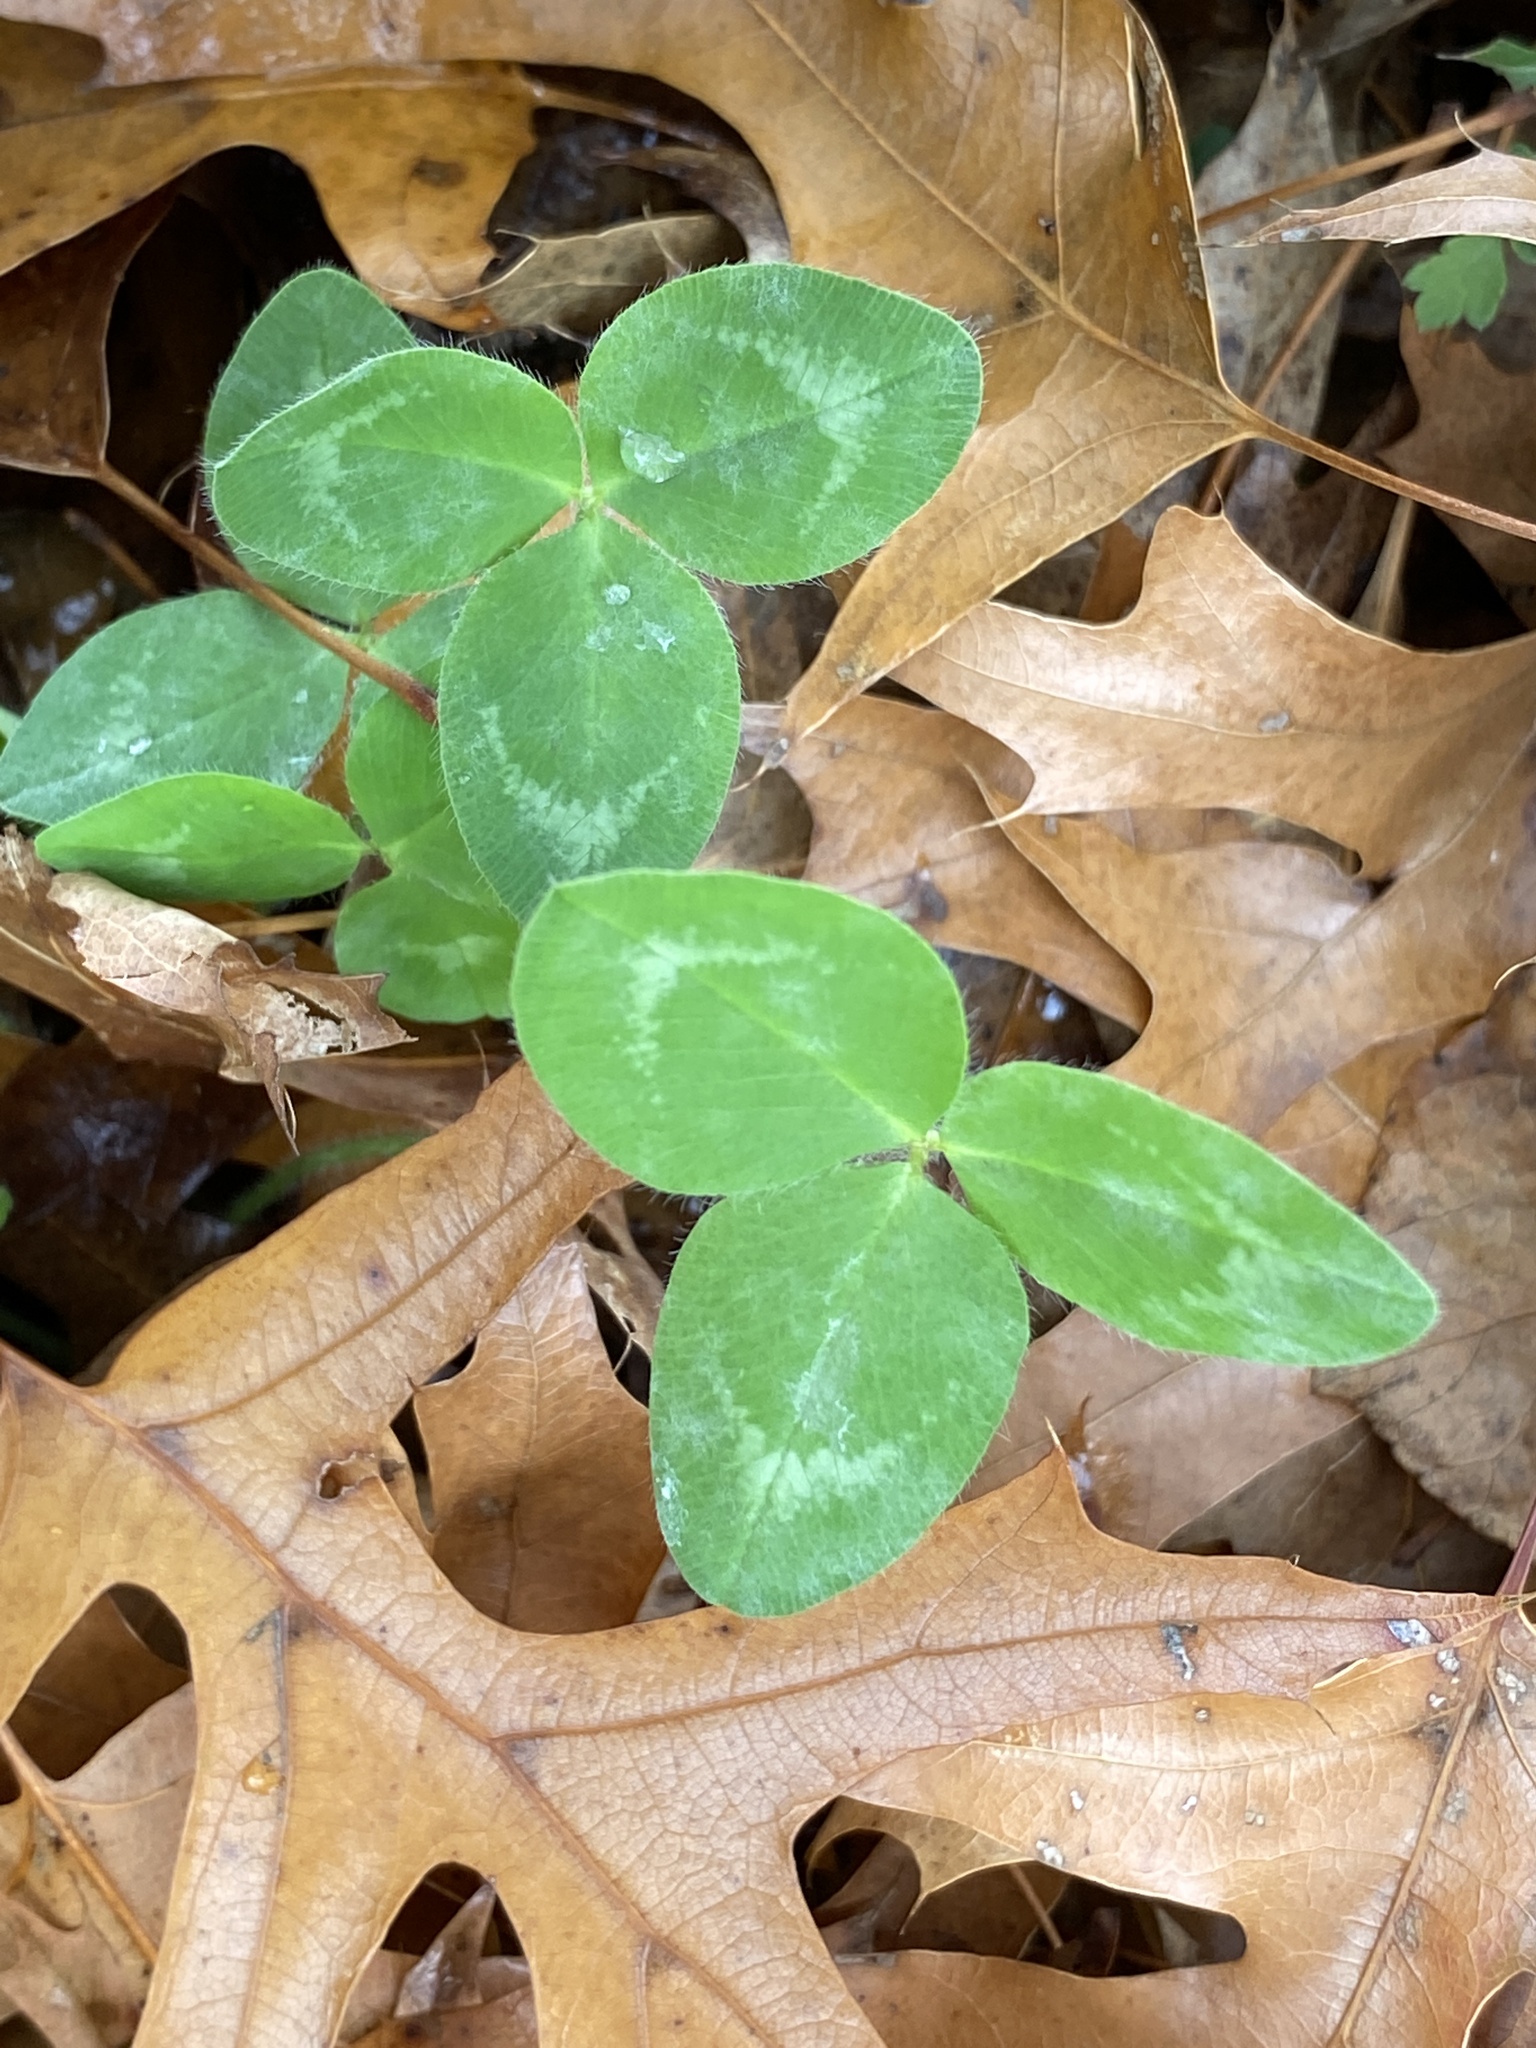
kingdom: Plantae
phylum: Tracheophyta
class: Magnoliopsida
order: Fabales
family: Fabaceae
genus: Trifolium
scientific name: Trifolium pratense
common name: Red clover
